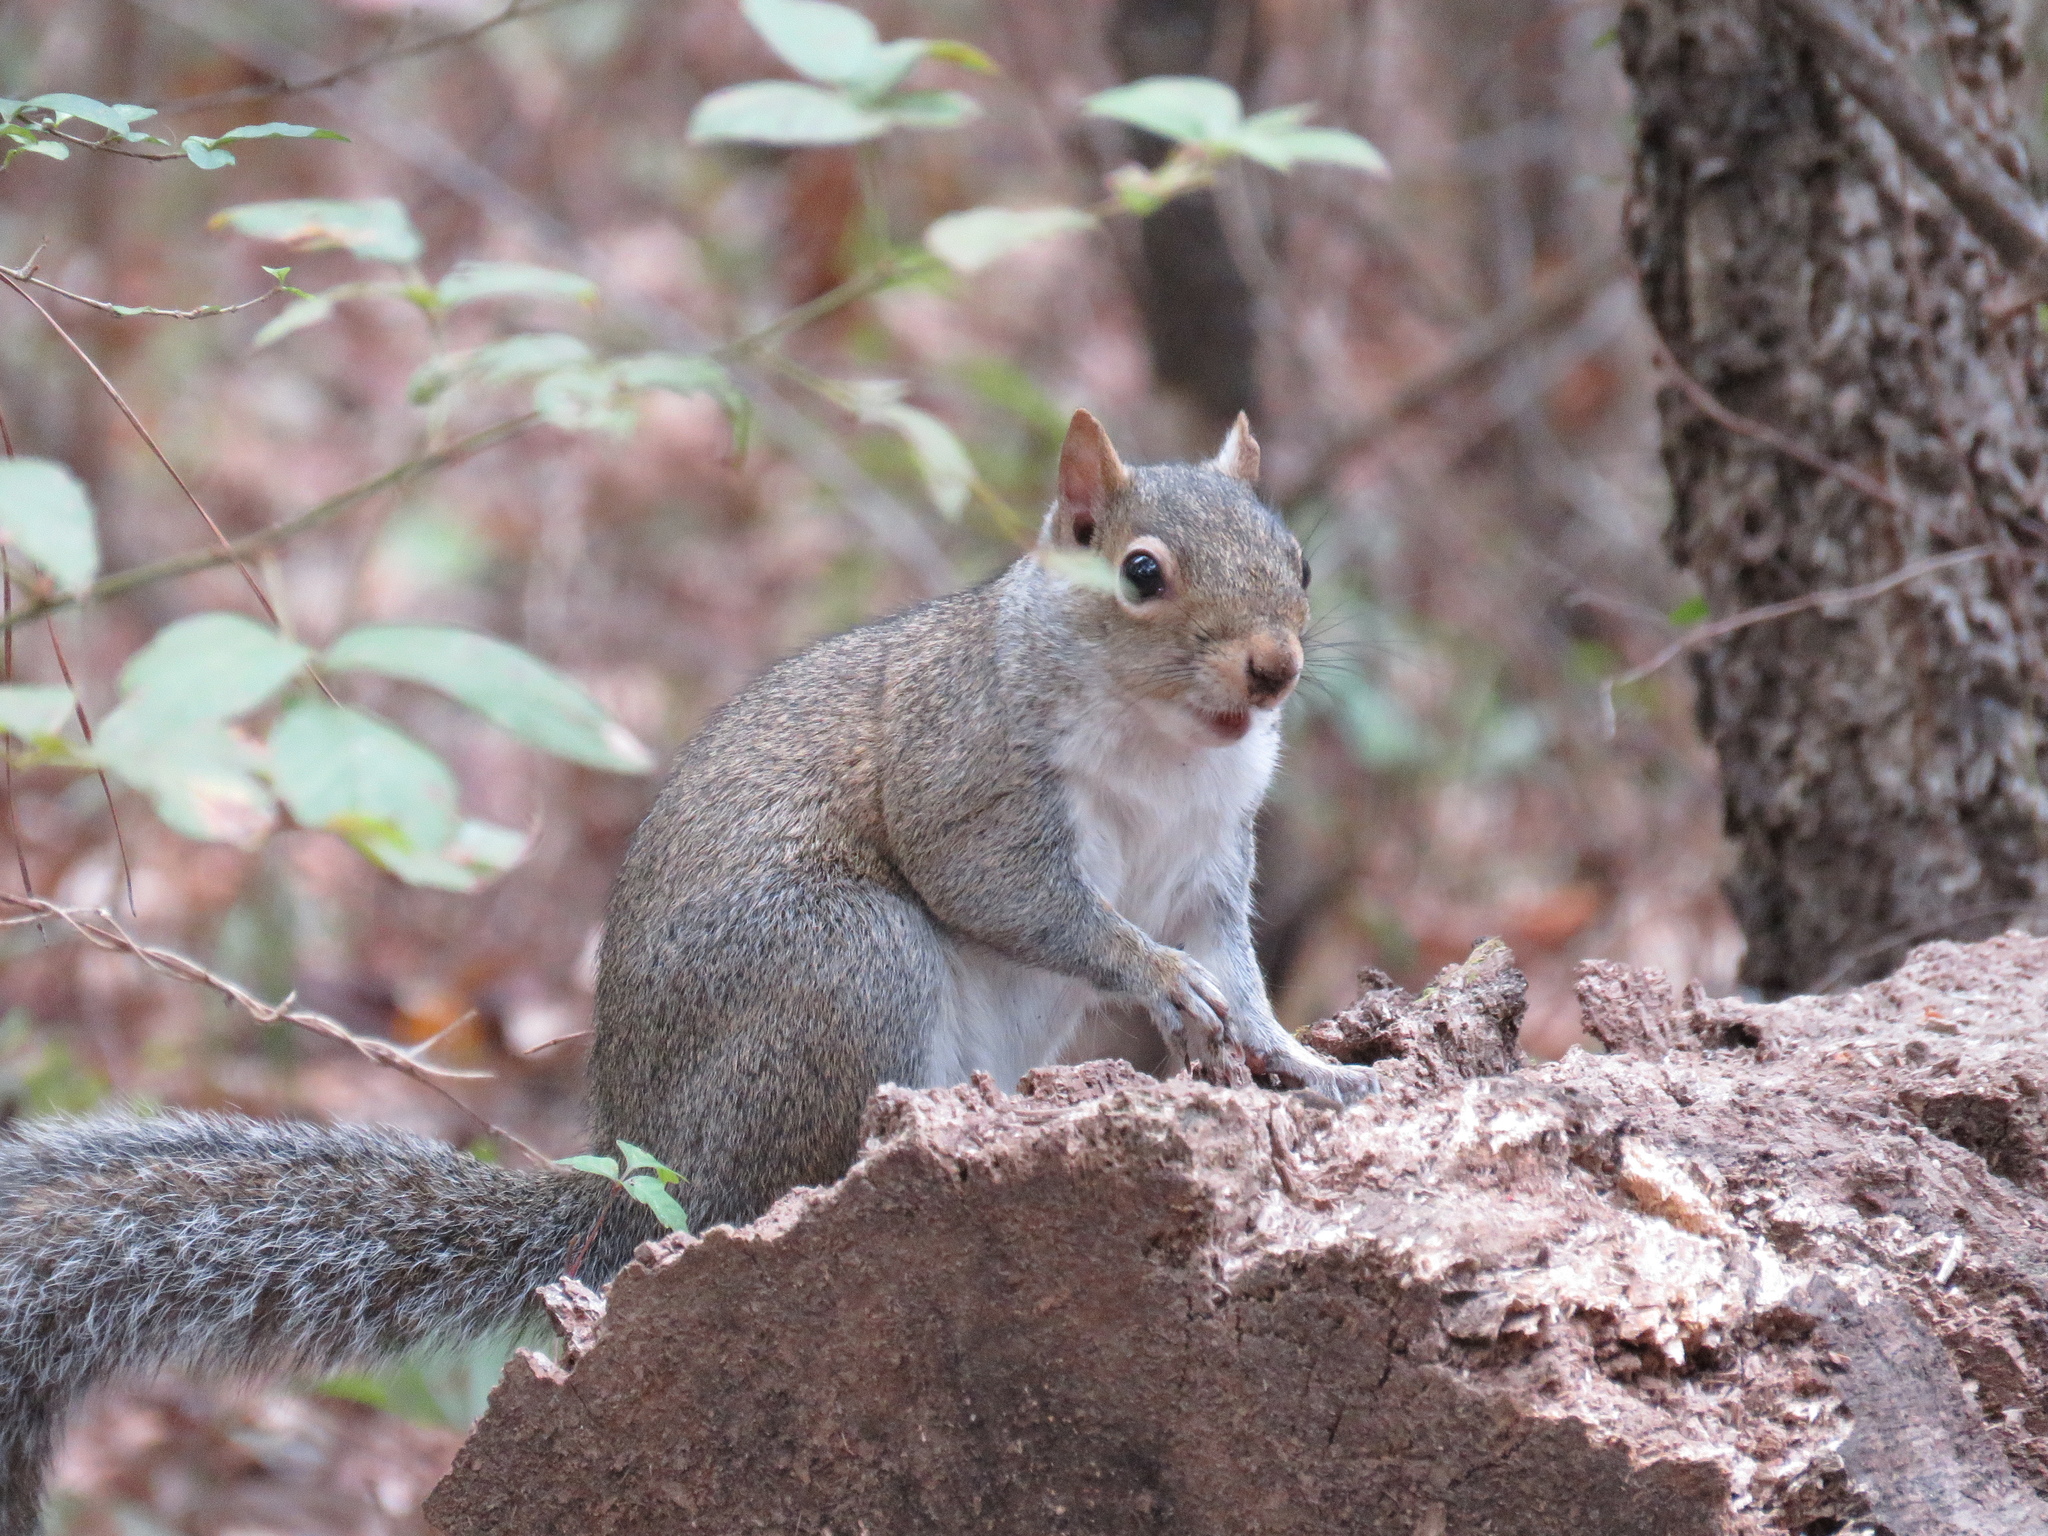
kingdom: Animalia
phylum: Chordata
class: Mammalia
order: Rodentia
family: Sciuridae
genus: Sciurus
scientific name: Sciurus carolinensis
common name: Eastern gray squirrel
